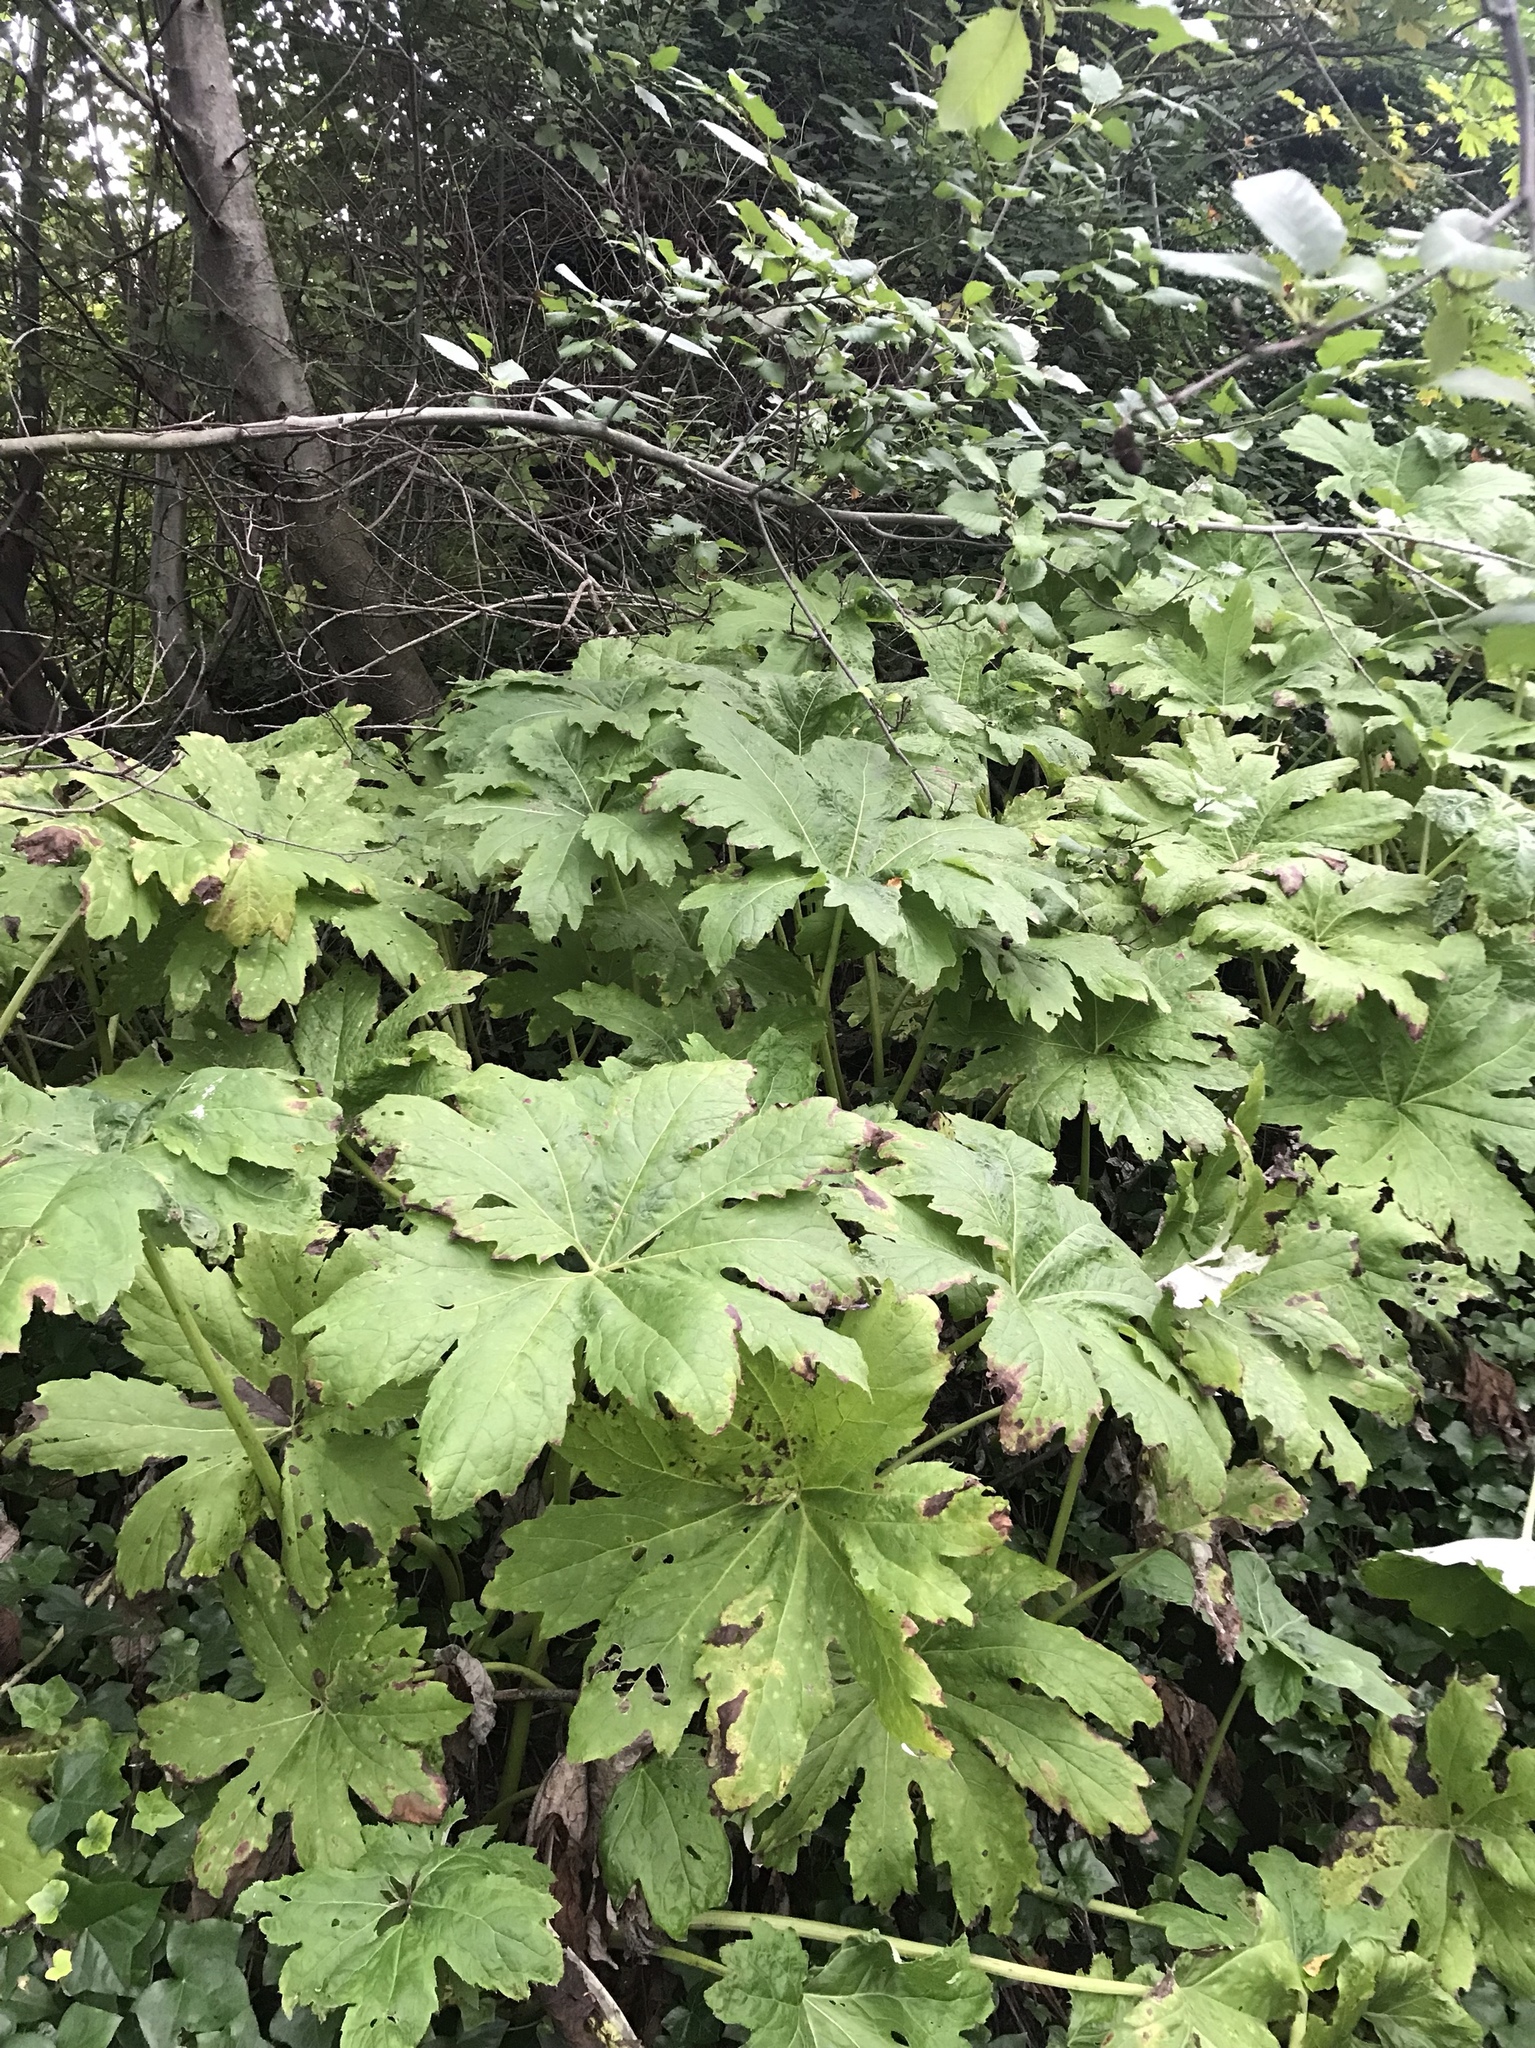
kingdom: Plantae
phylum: Tracheophyta
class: Magnoliopsida
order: Asterales
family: Asteraceae
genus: Petasites
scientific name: Petasites frigidus
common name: Arctic butterbur
